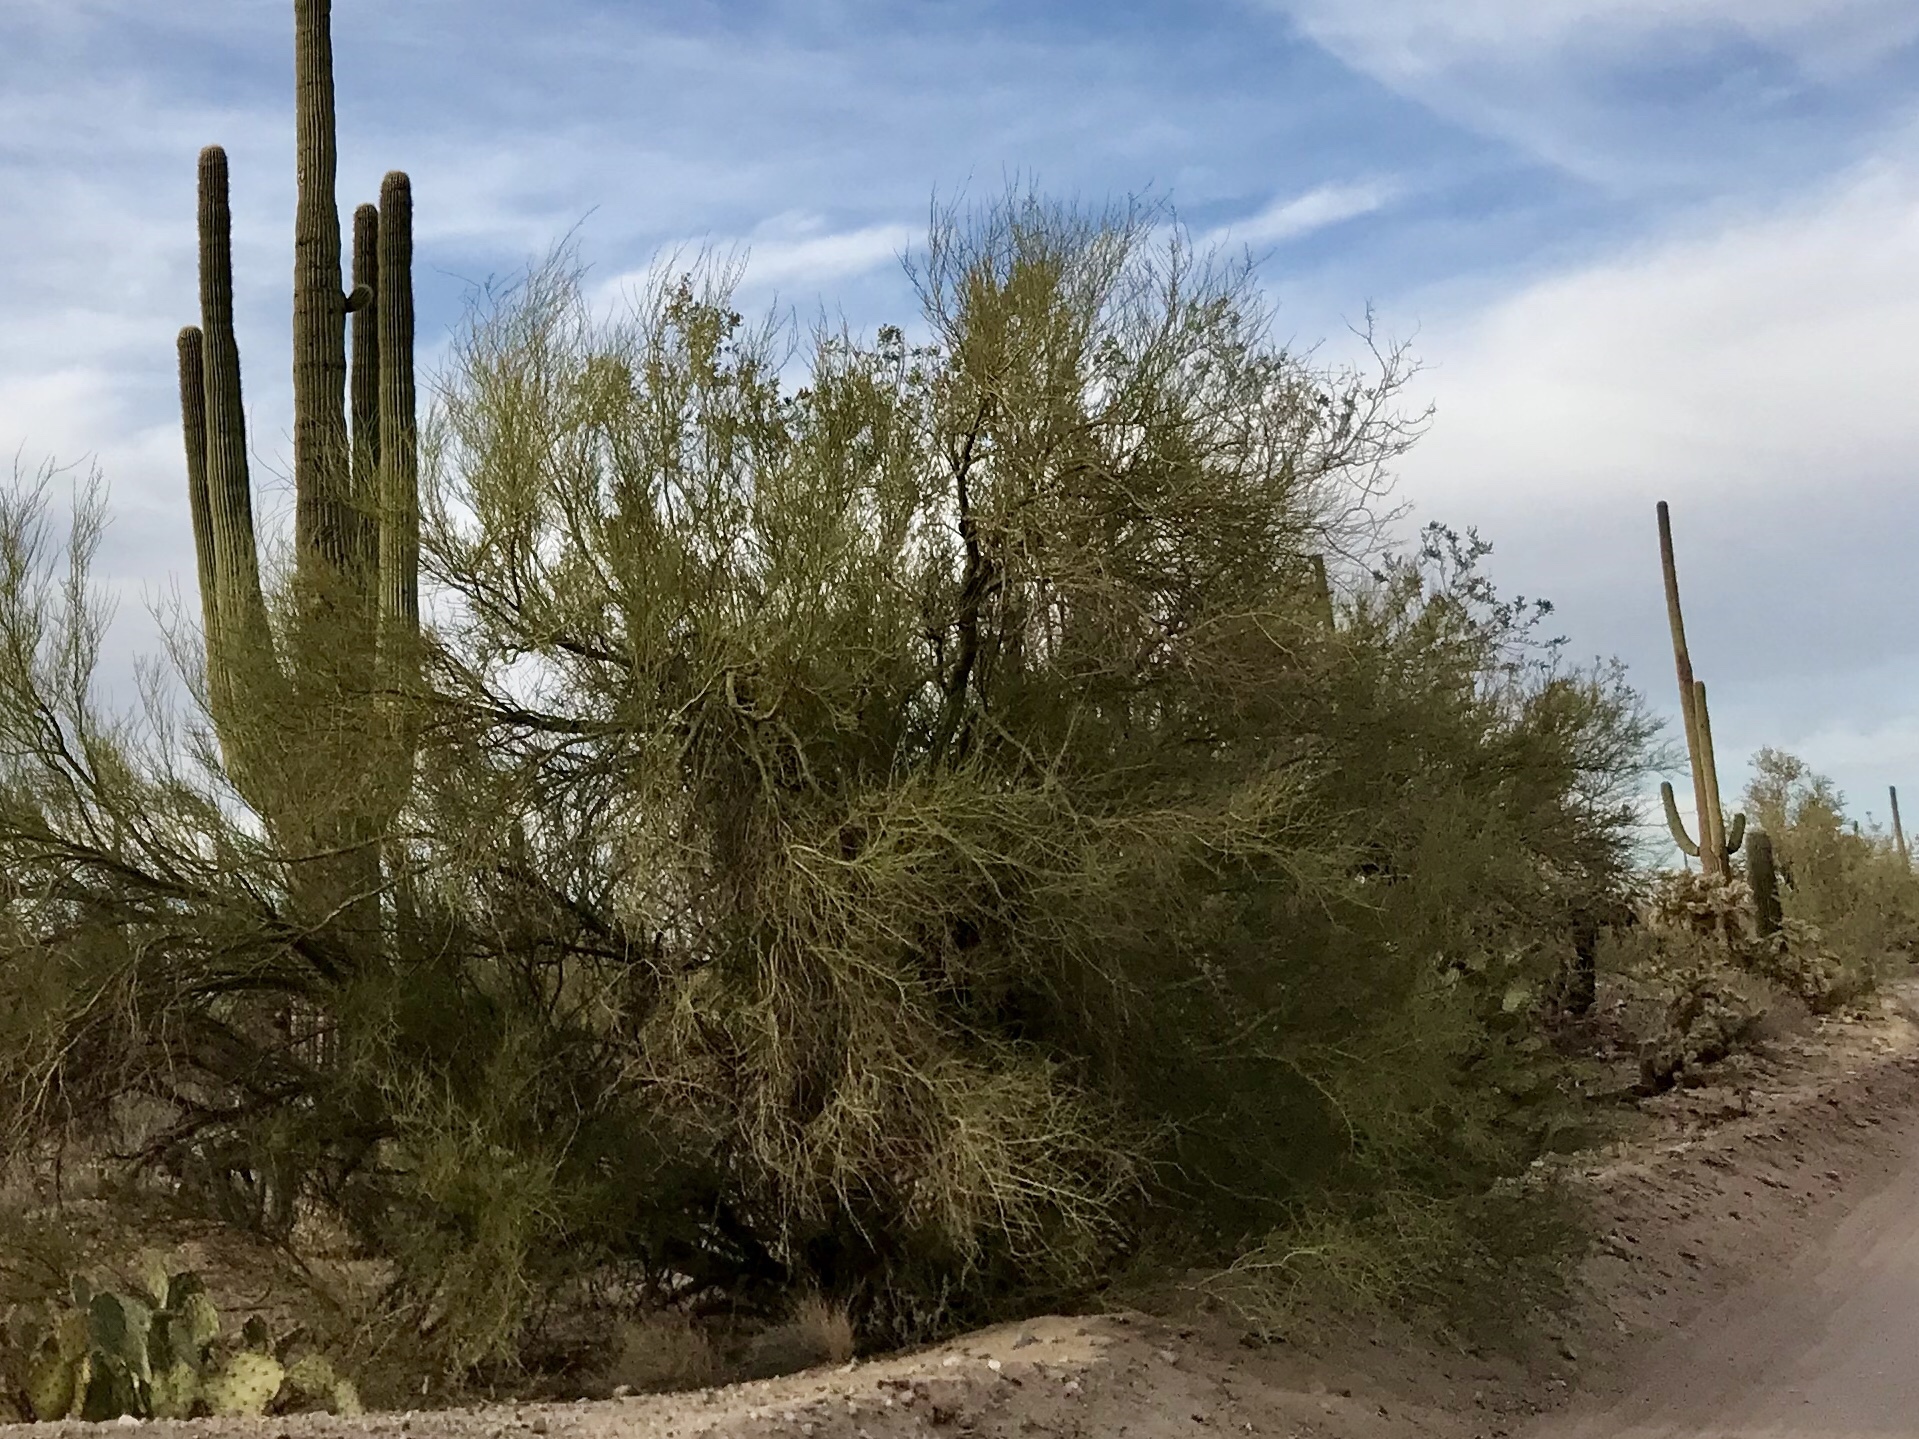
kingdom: Plantae
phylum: Tracheophyta
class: Magnoliopsida
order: Fabales
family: Fabaceae
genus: Parkinsonia
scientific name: Parkinsonia microphylla
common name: Yellow paloverde
